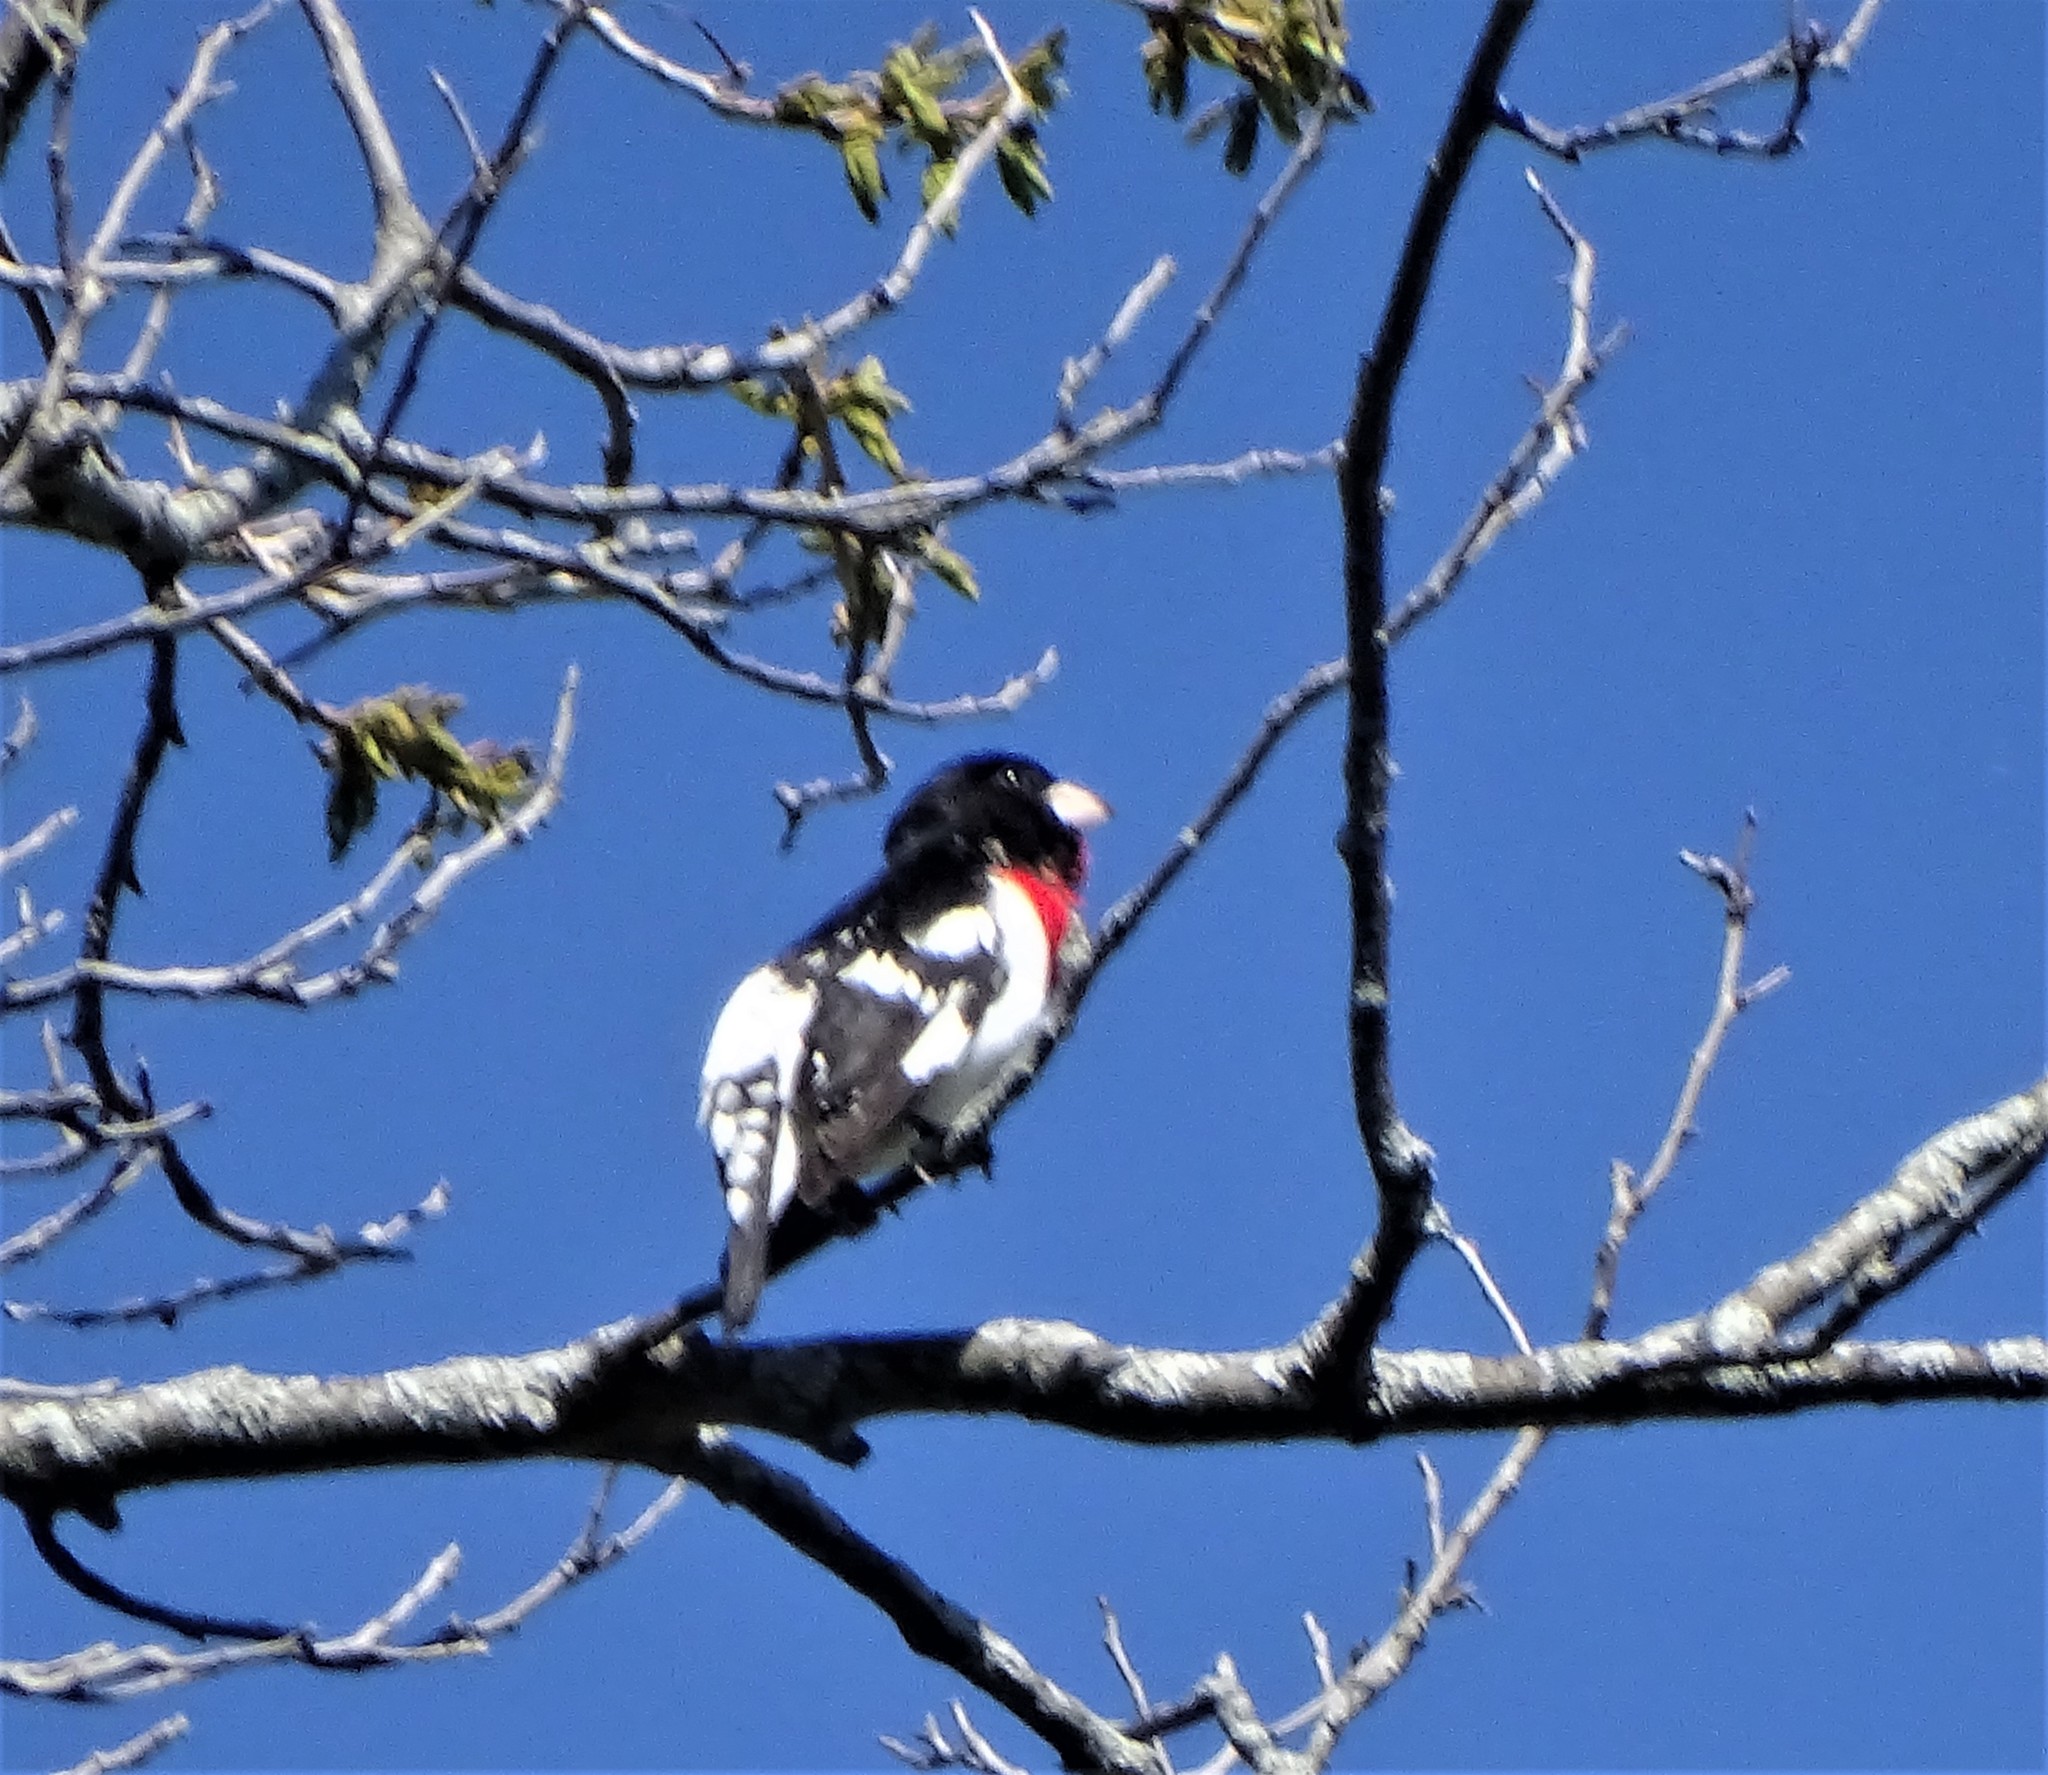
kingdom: Animalia
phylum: Chordata
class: Aves
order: Passeriformes
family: Cardinalidae
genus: Pheucticus
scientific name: Pheucticus ludovicianus
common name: Rose-breasted grosbeak
